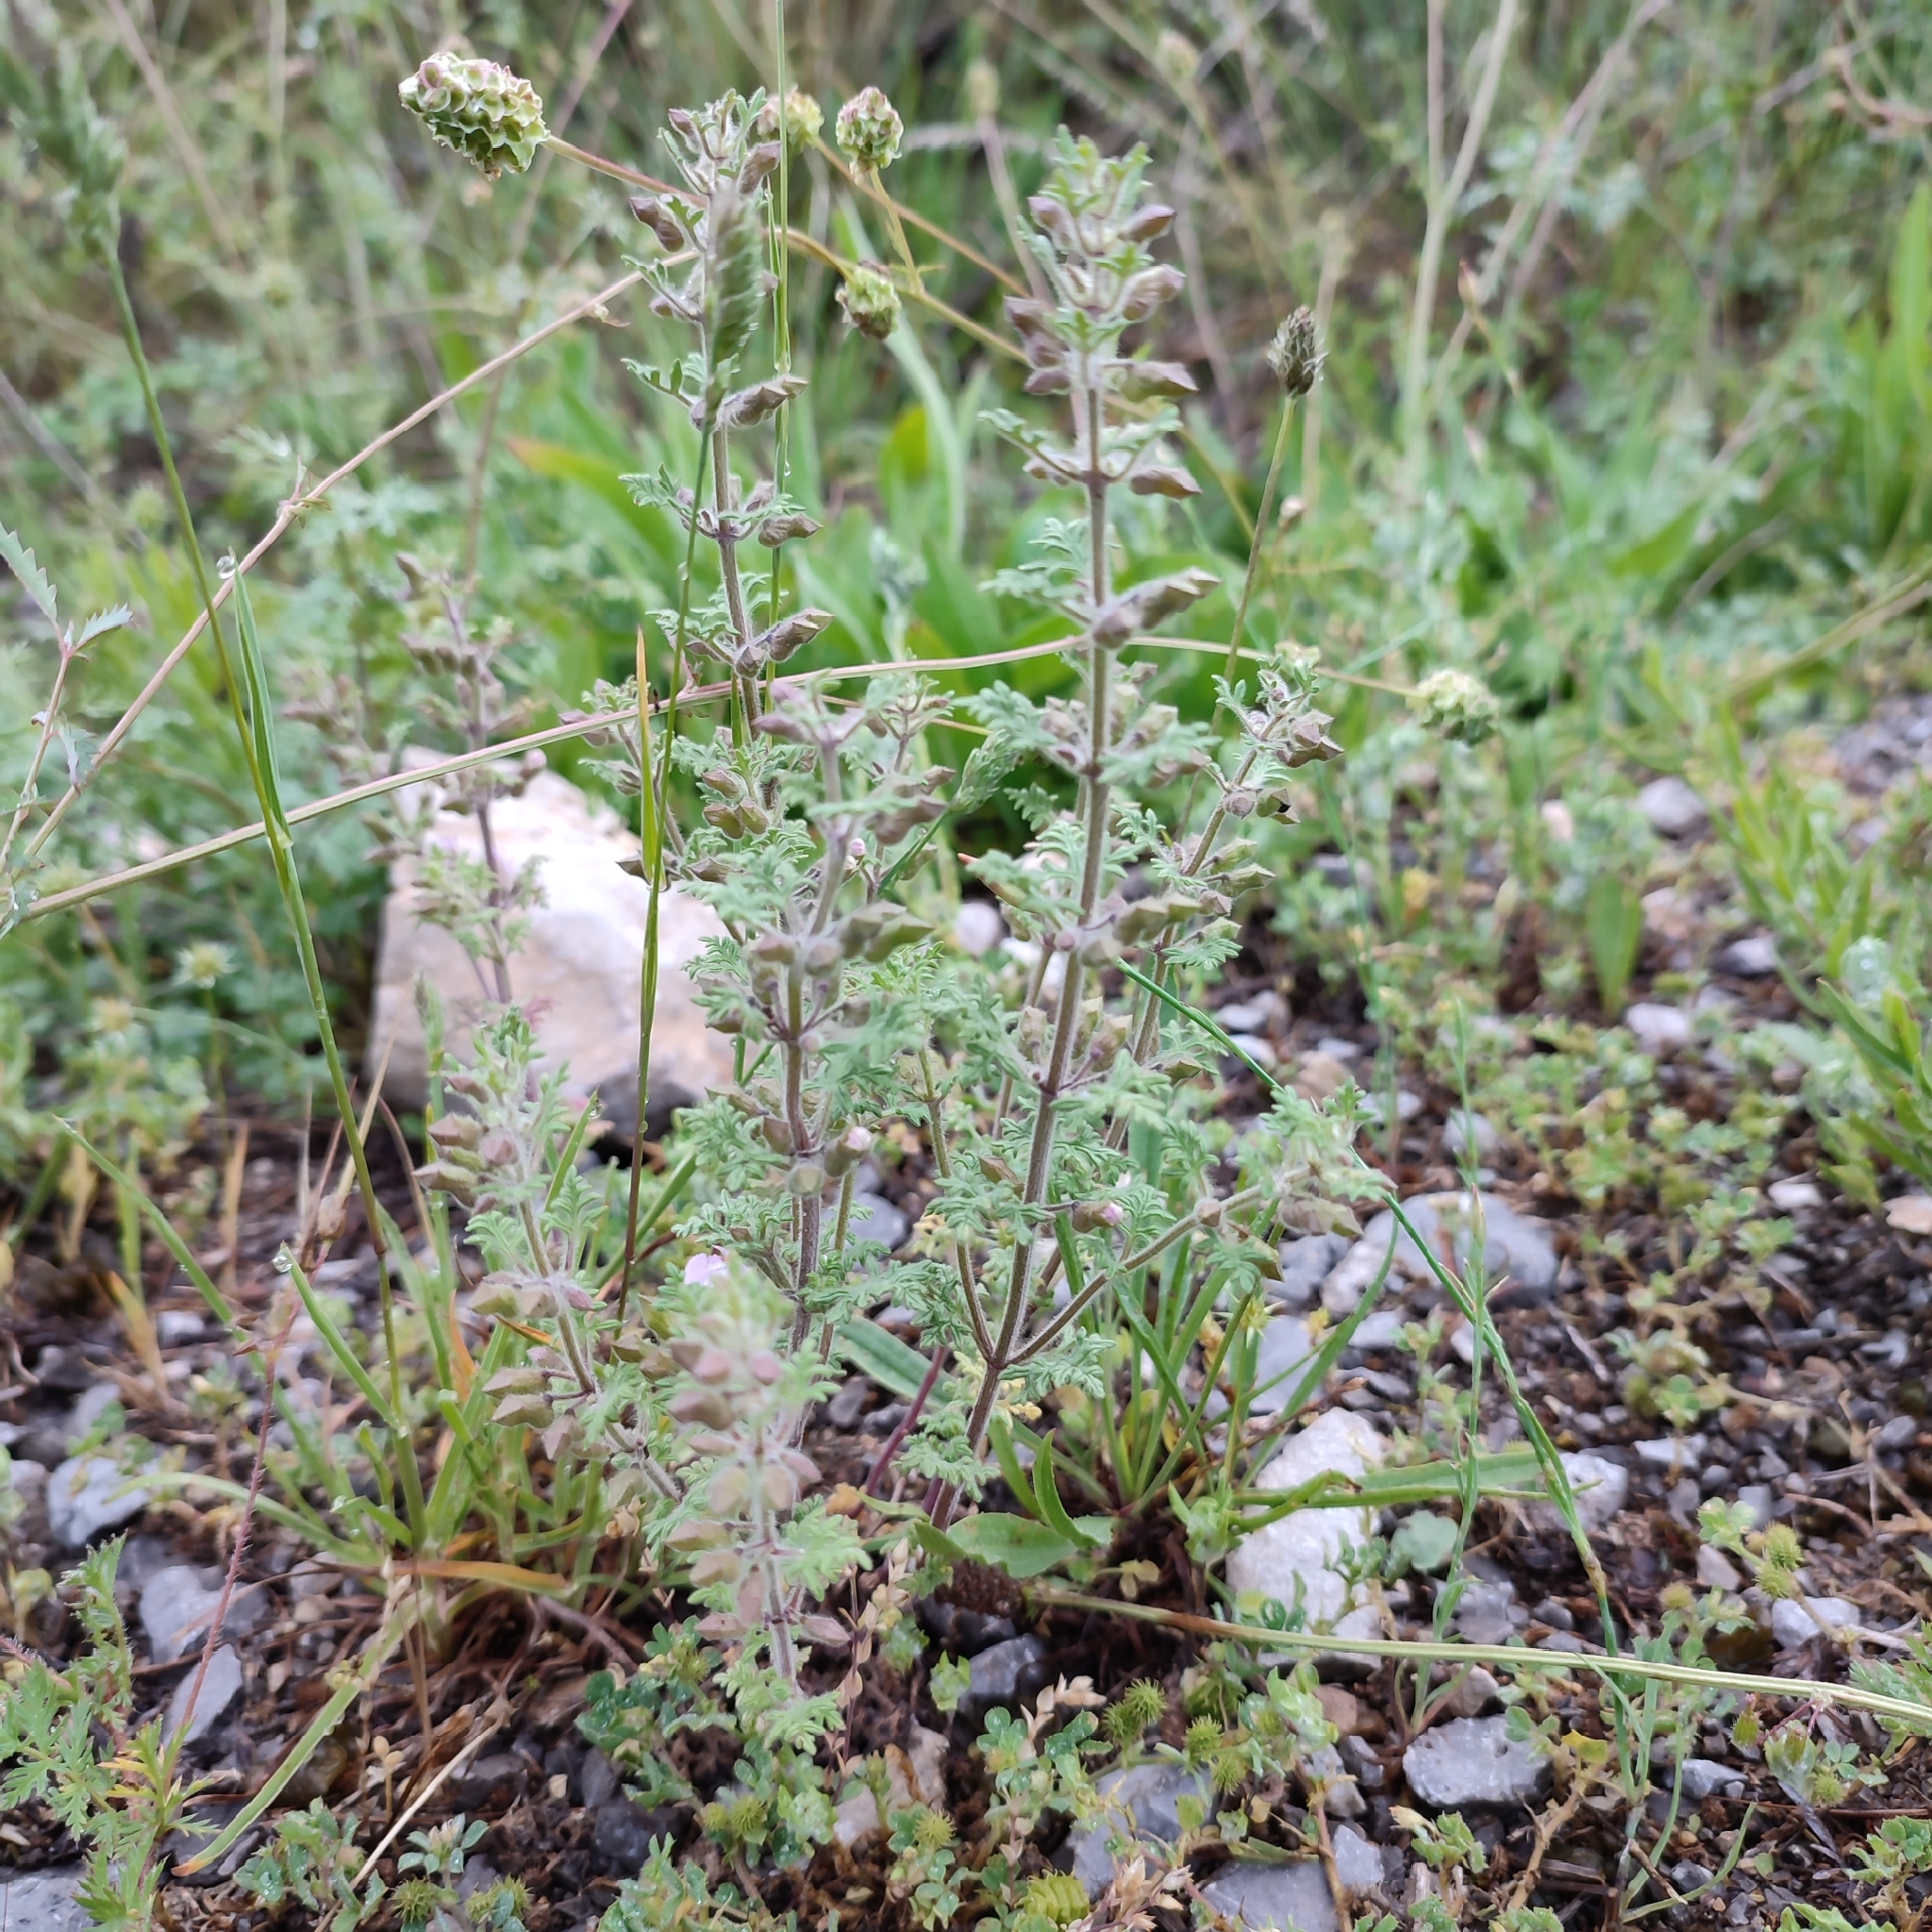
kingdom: Plantae
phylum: Tracheophyta
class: Magnoliopsida
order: Lamiales
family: Lamiaceae
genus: Teucrium
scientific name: Teucrium botrys
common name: Cut-leaved germander
